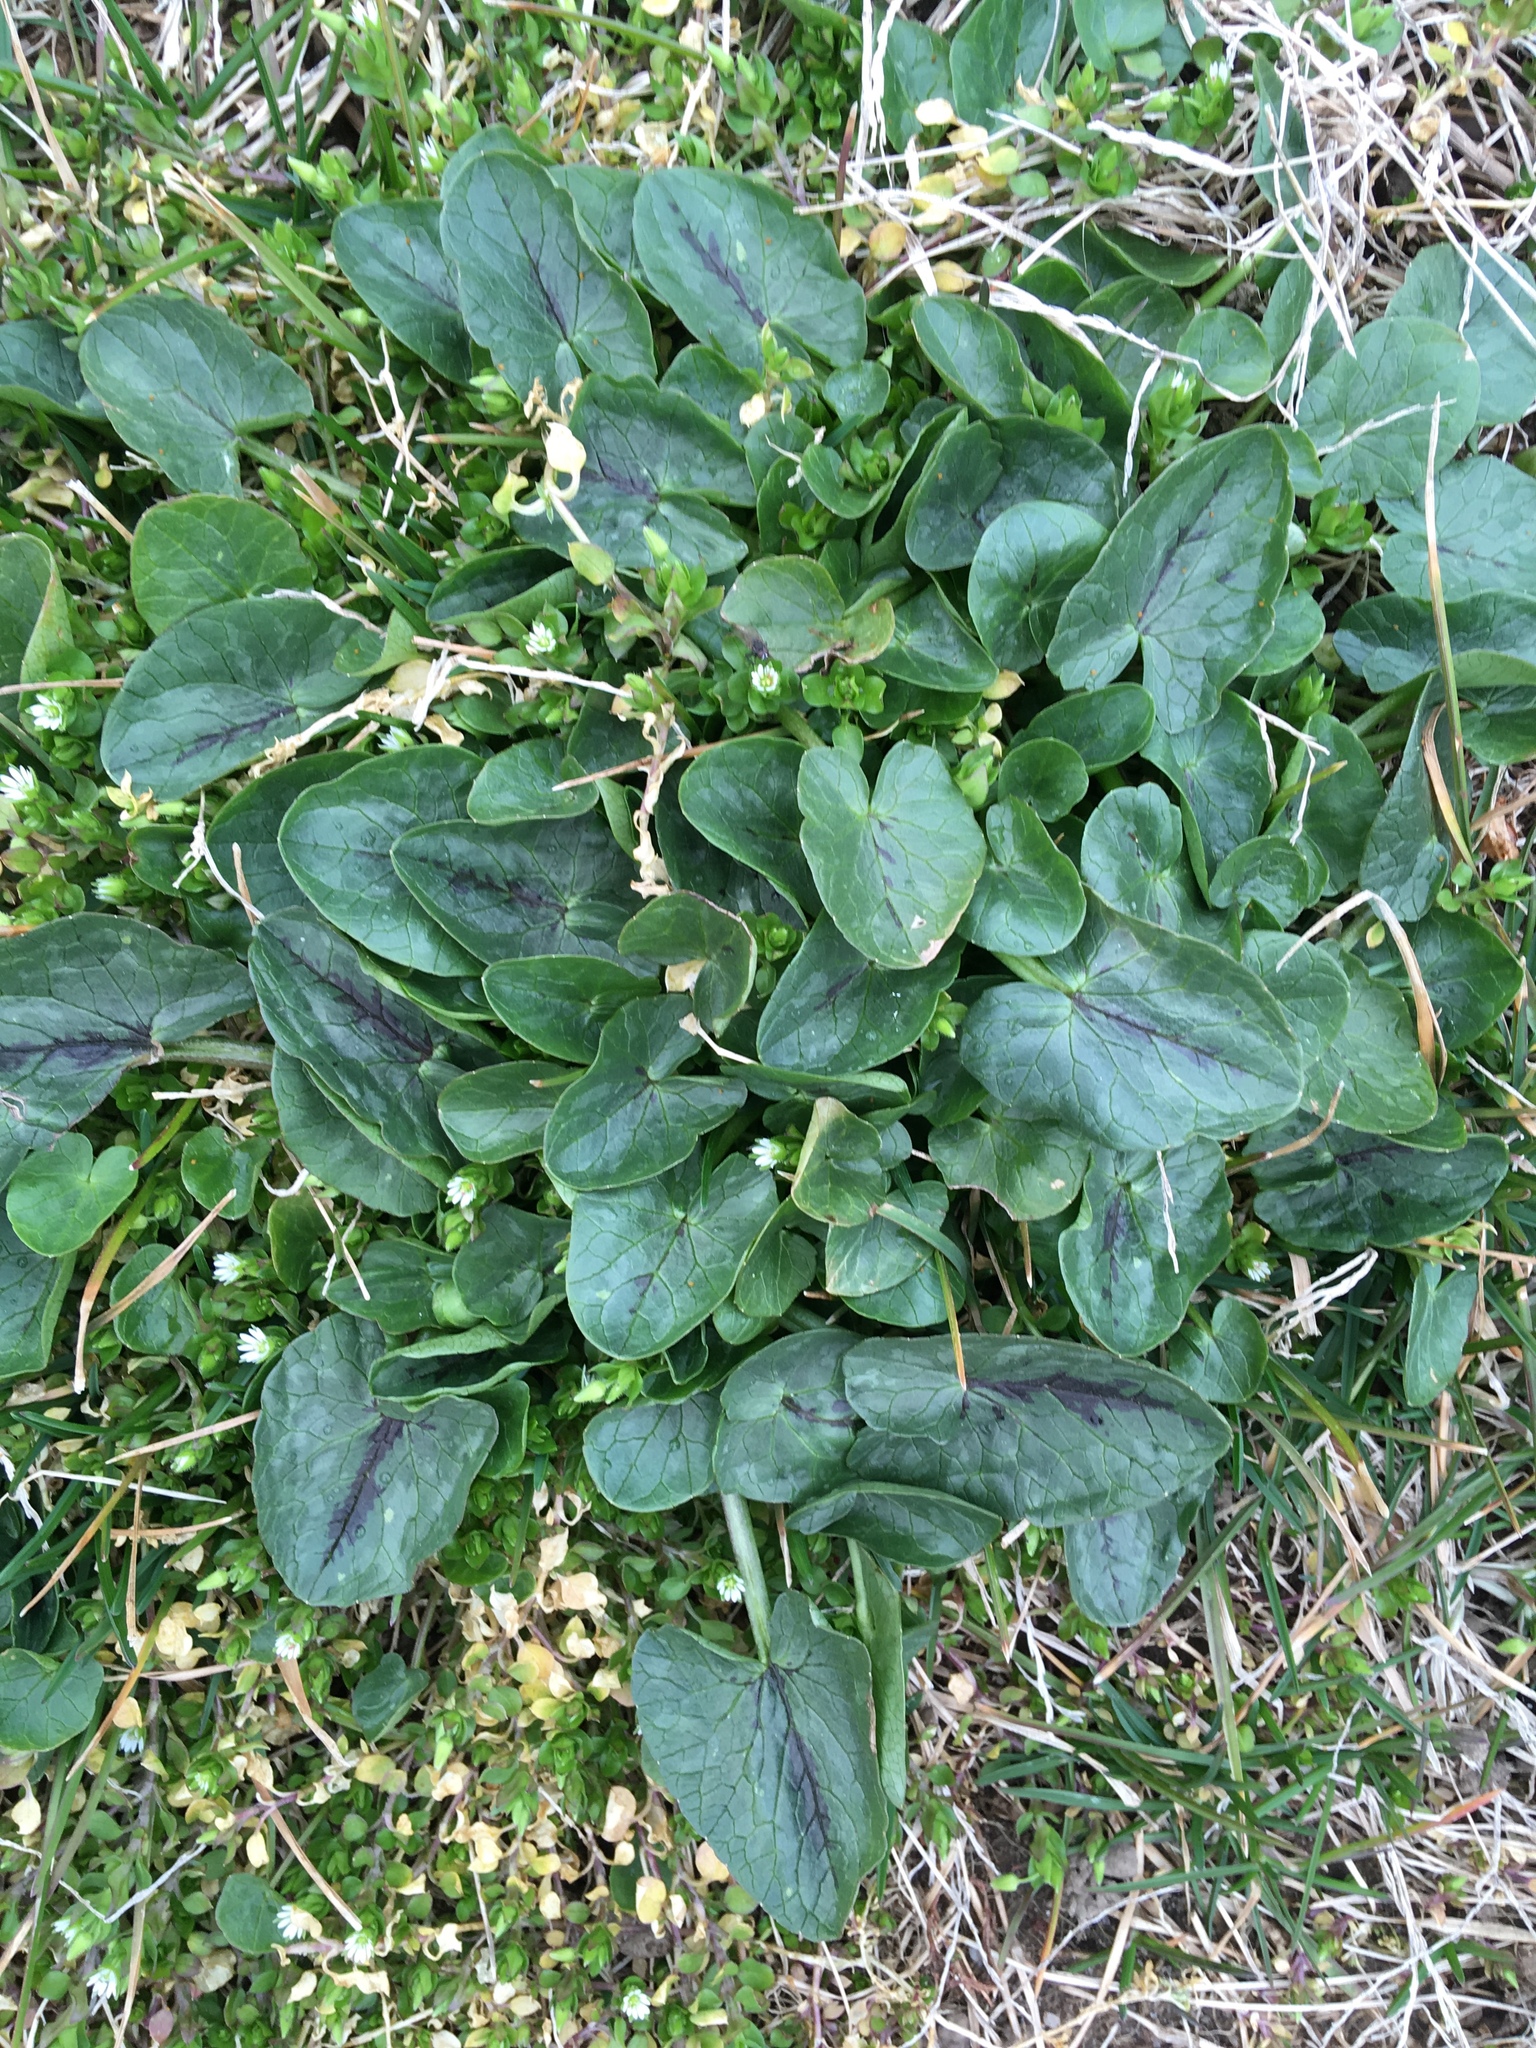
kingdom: Plantae
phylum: Tracheophyta
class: Magnoliopsida
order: Ranunculales
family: Ranunculaceae
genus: Ficaria
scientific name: Ficaria verna
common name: Lesser celandine
